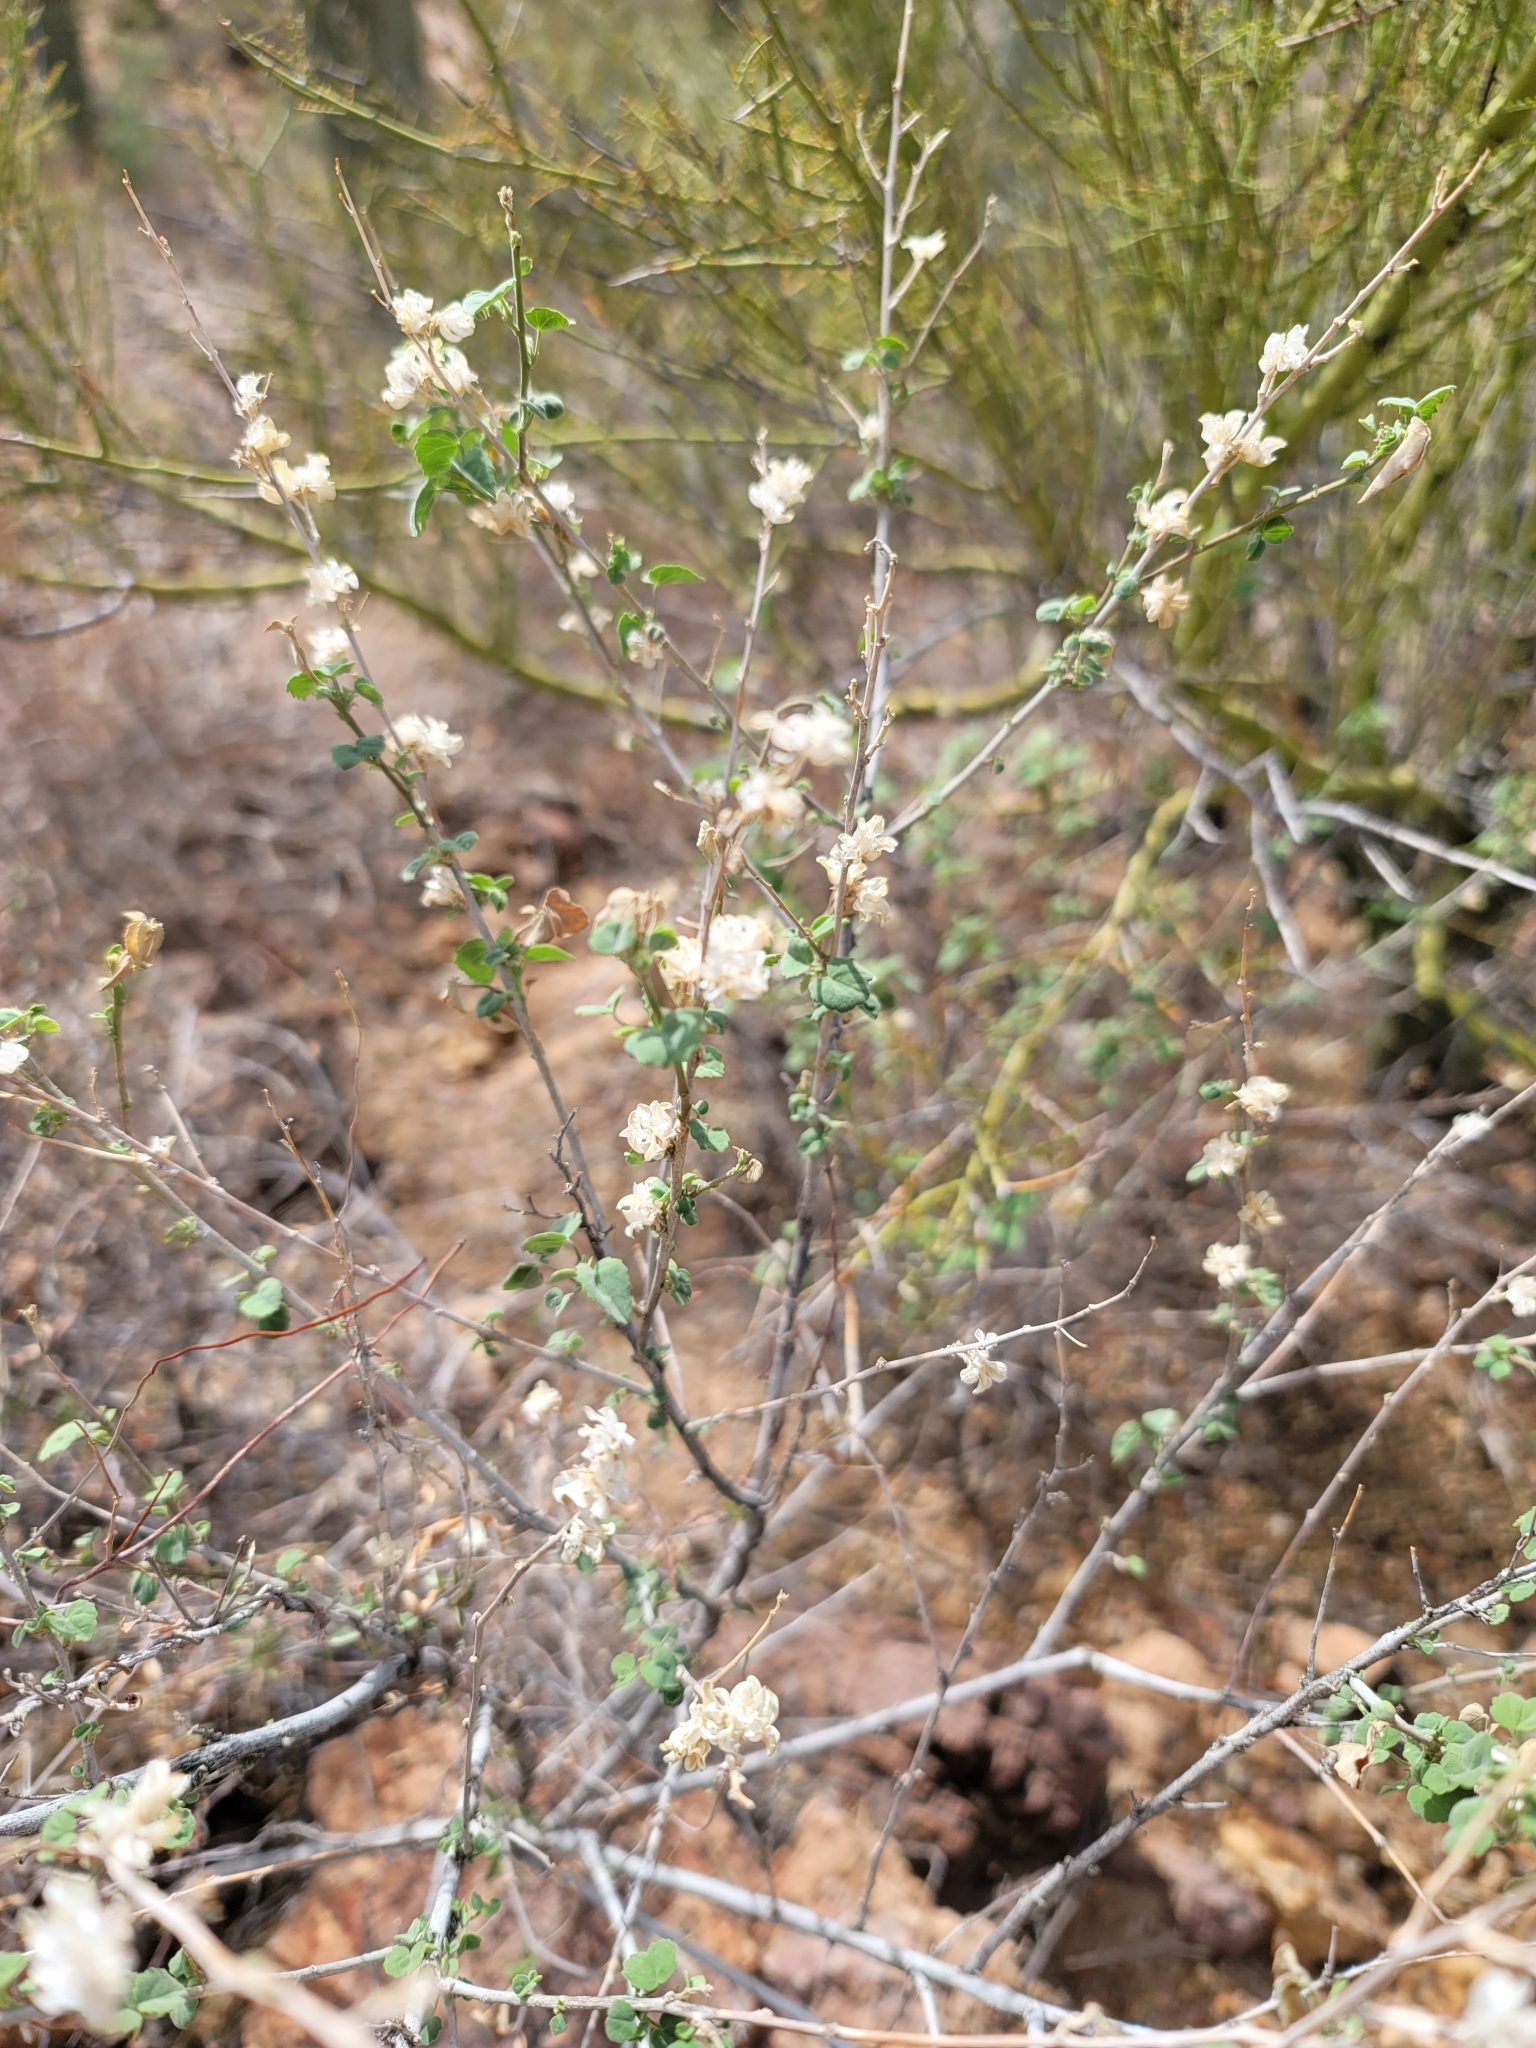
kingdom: Plantae
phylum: Tracheophyta
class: Magnoliopsida
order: Malvales
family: Malvaceae
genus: Abutilon
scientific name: Abutilon incanum
